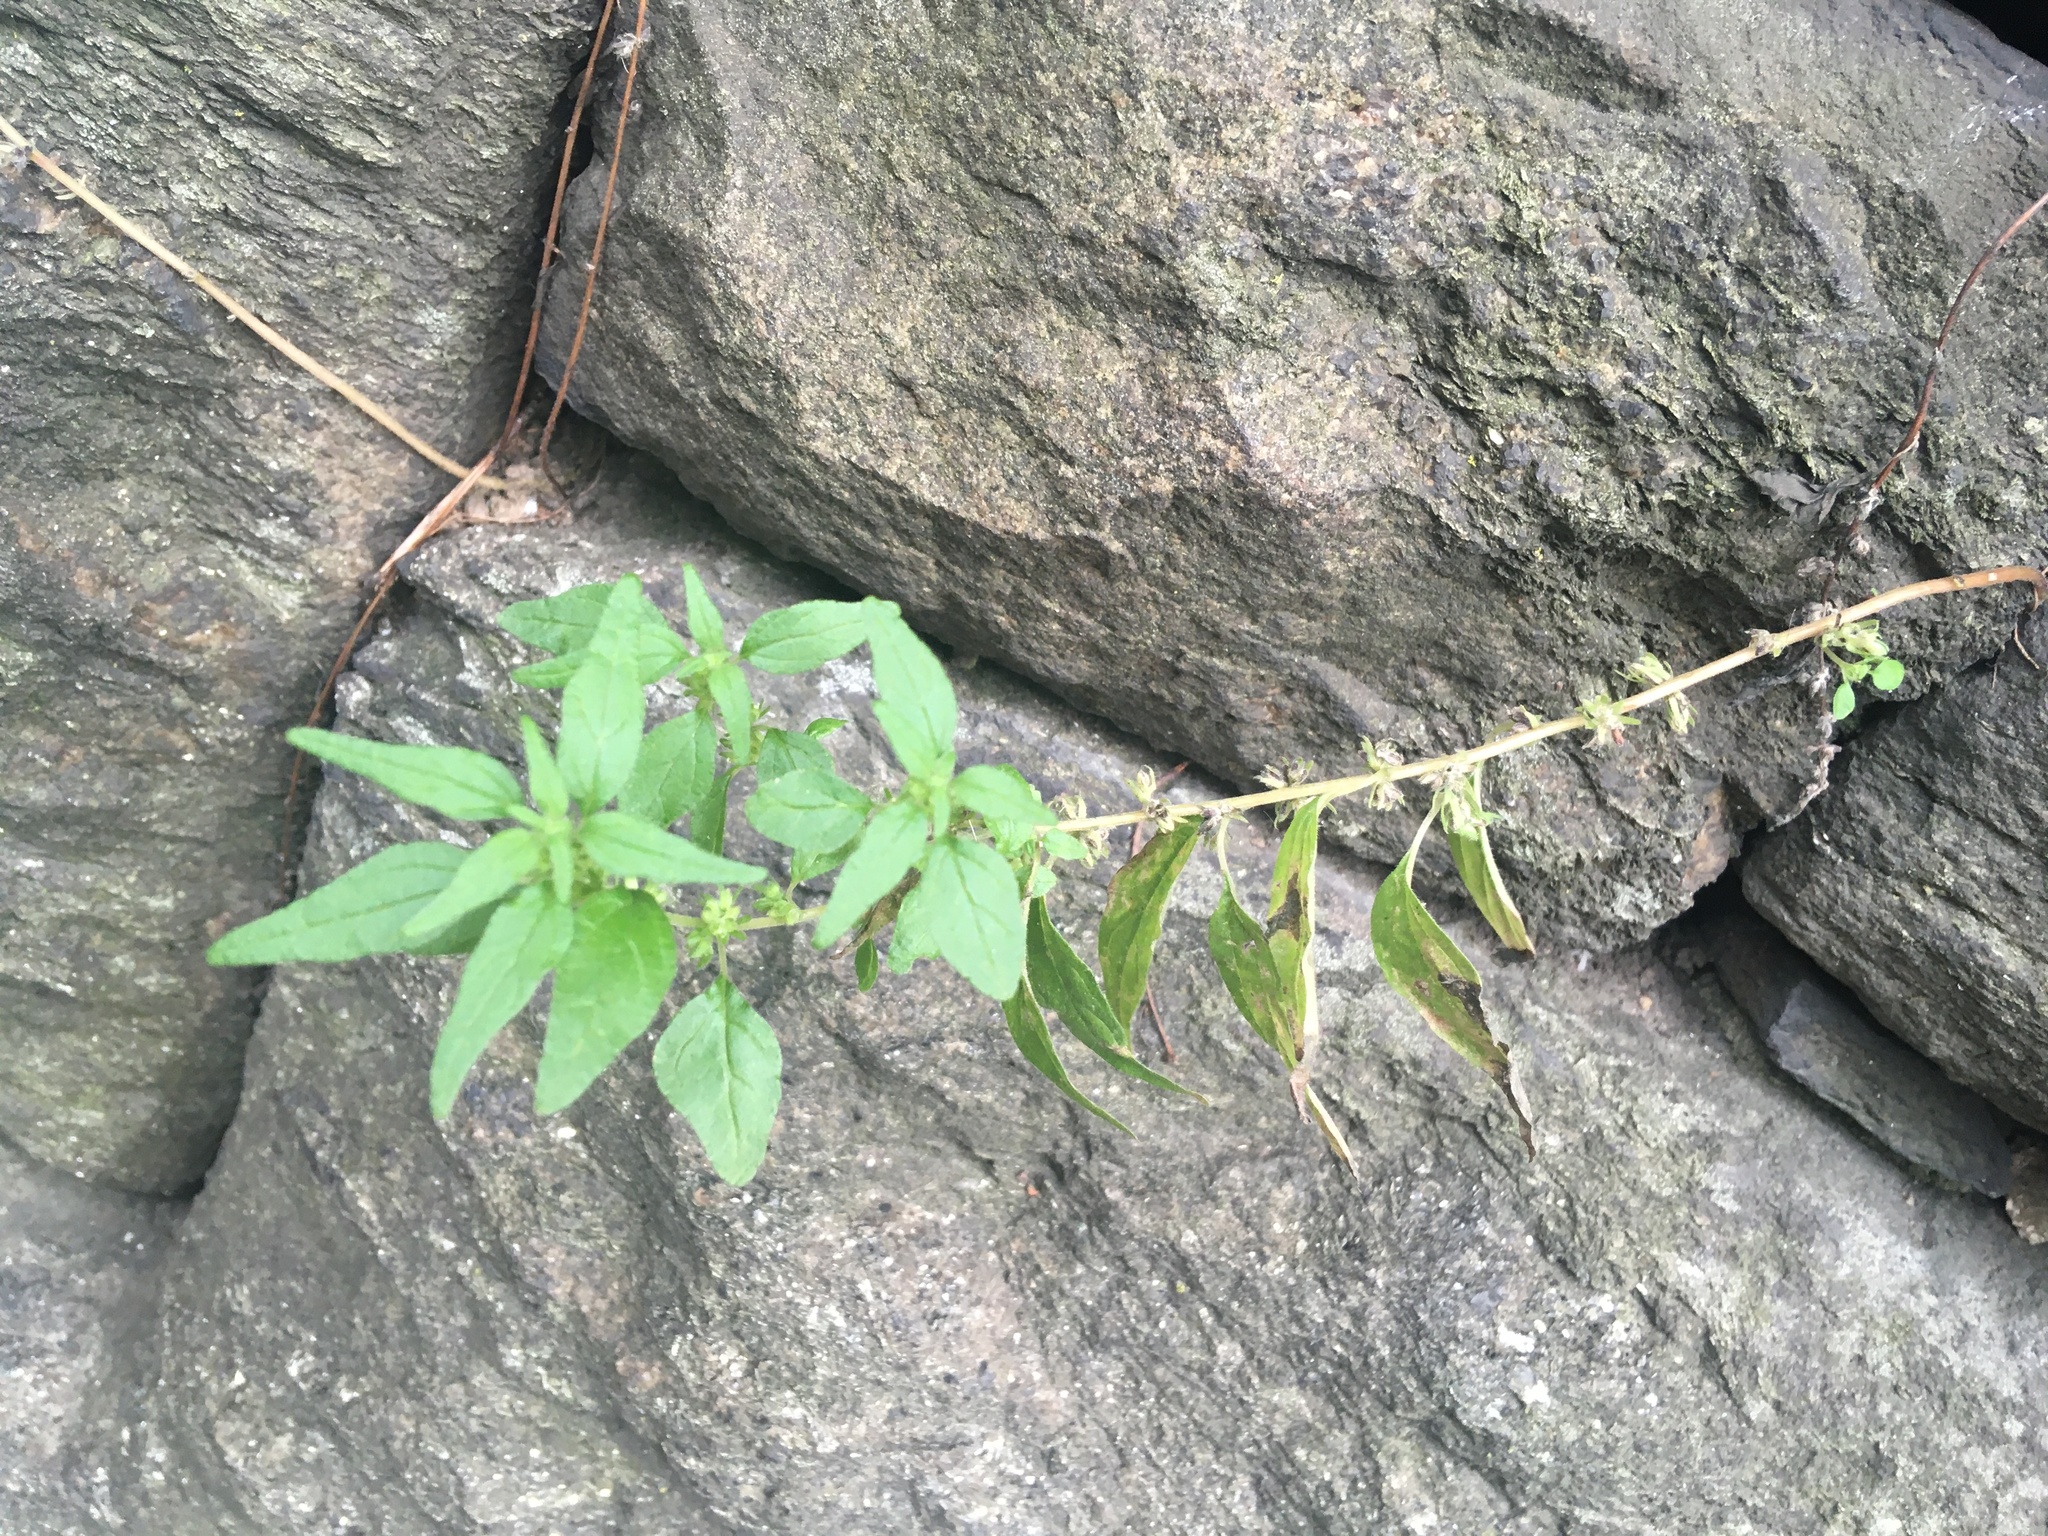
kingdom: Plantae
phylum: Tracheophyta
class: Magnoliopsida
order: Rosales
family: Urticaceae
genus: Parietaria
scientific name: Parietaria pensylvanica
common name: Pennsylvania pellitory
